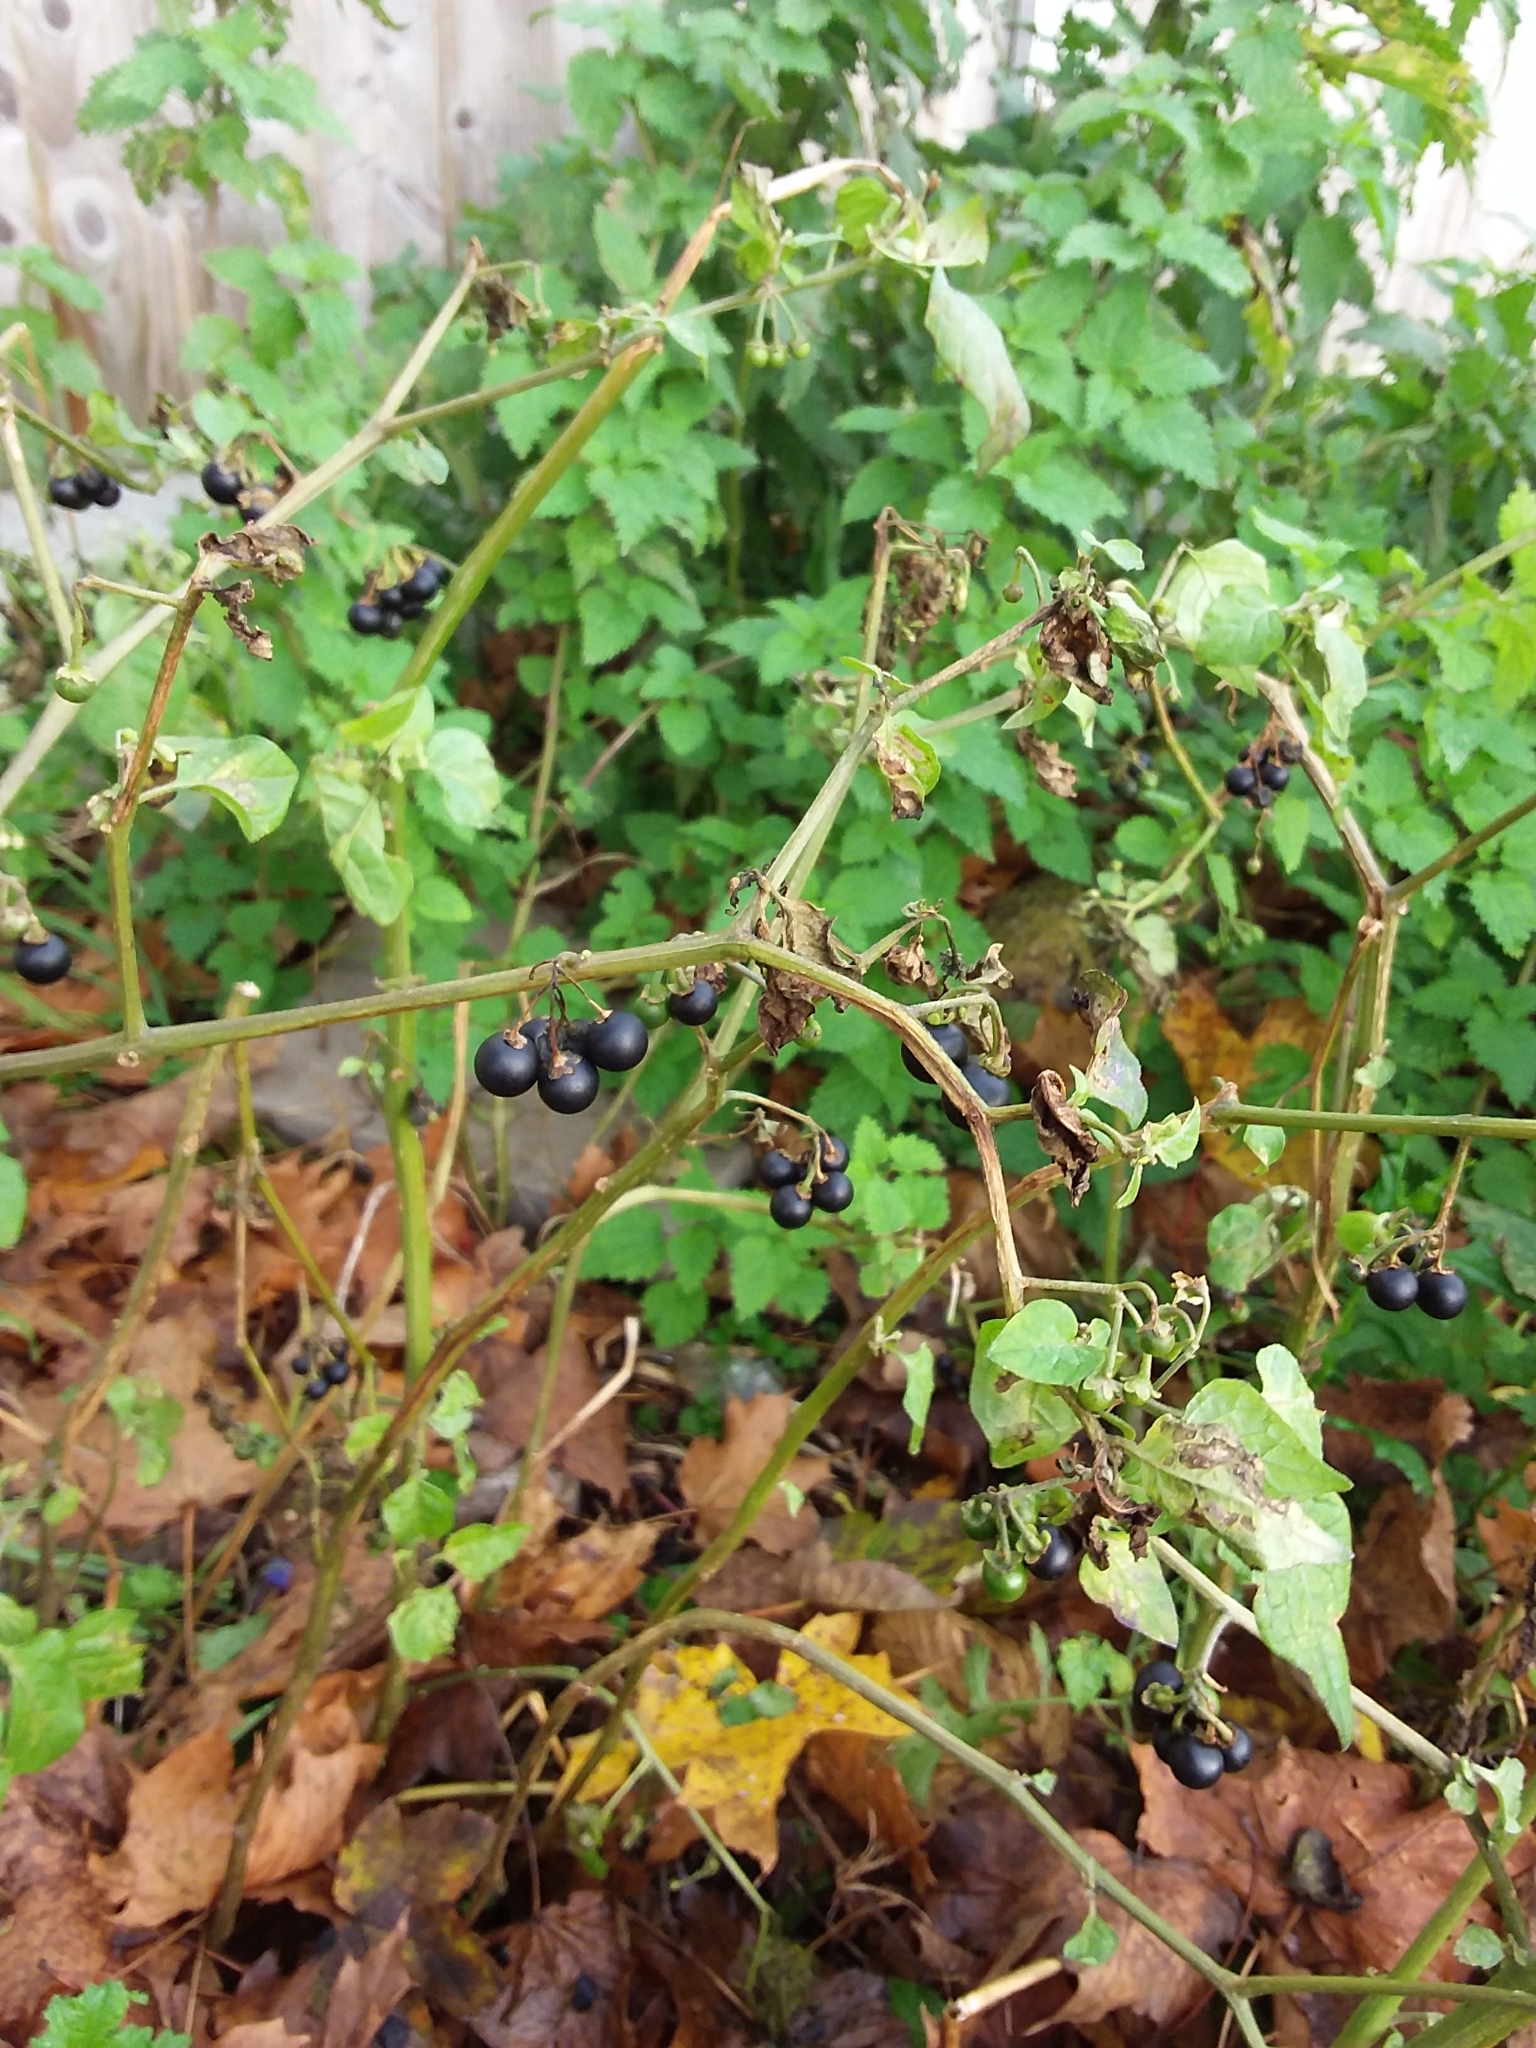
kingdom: Plantae
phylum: Tracheophyta
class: Magnoliopsida
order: Solanales
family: Solanaceae
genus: Solanum
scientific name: Solanum nigrum
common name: Black nightshade
